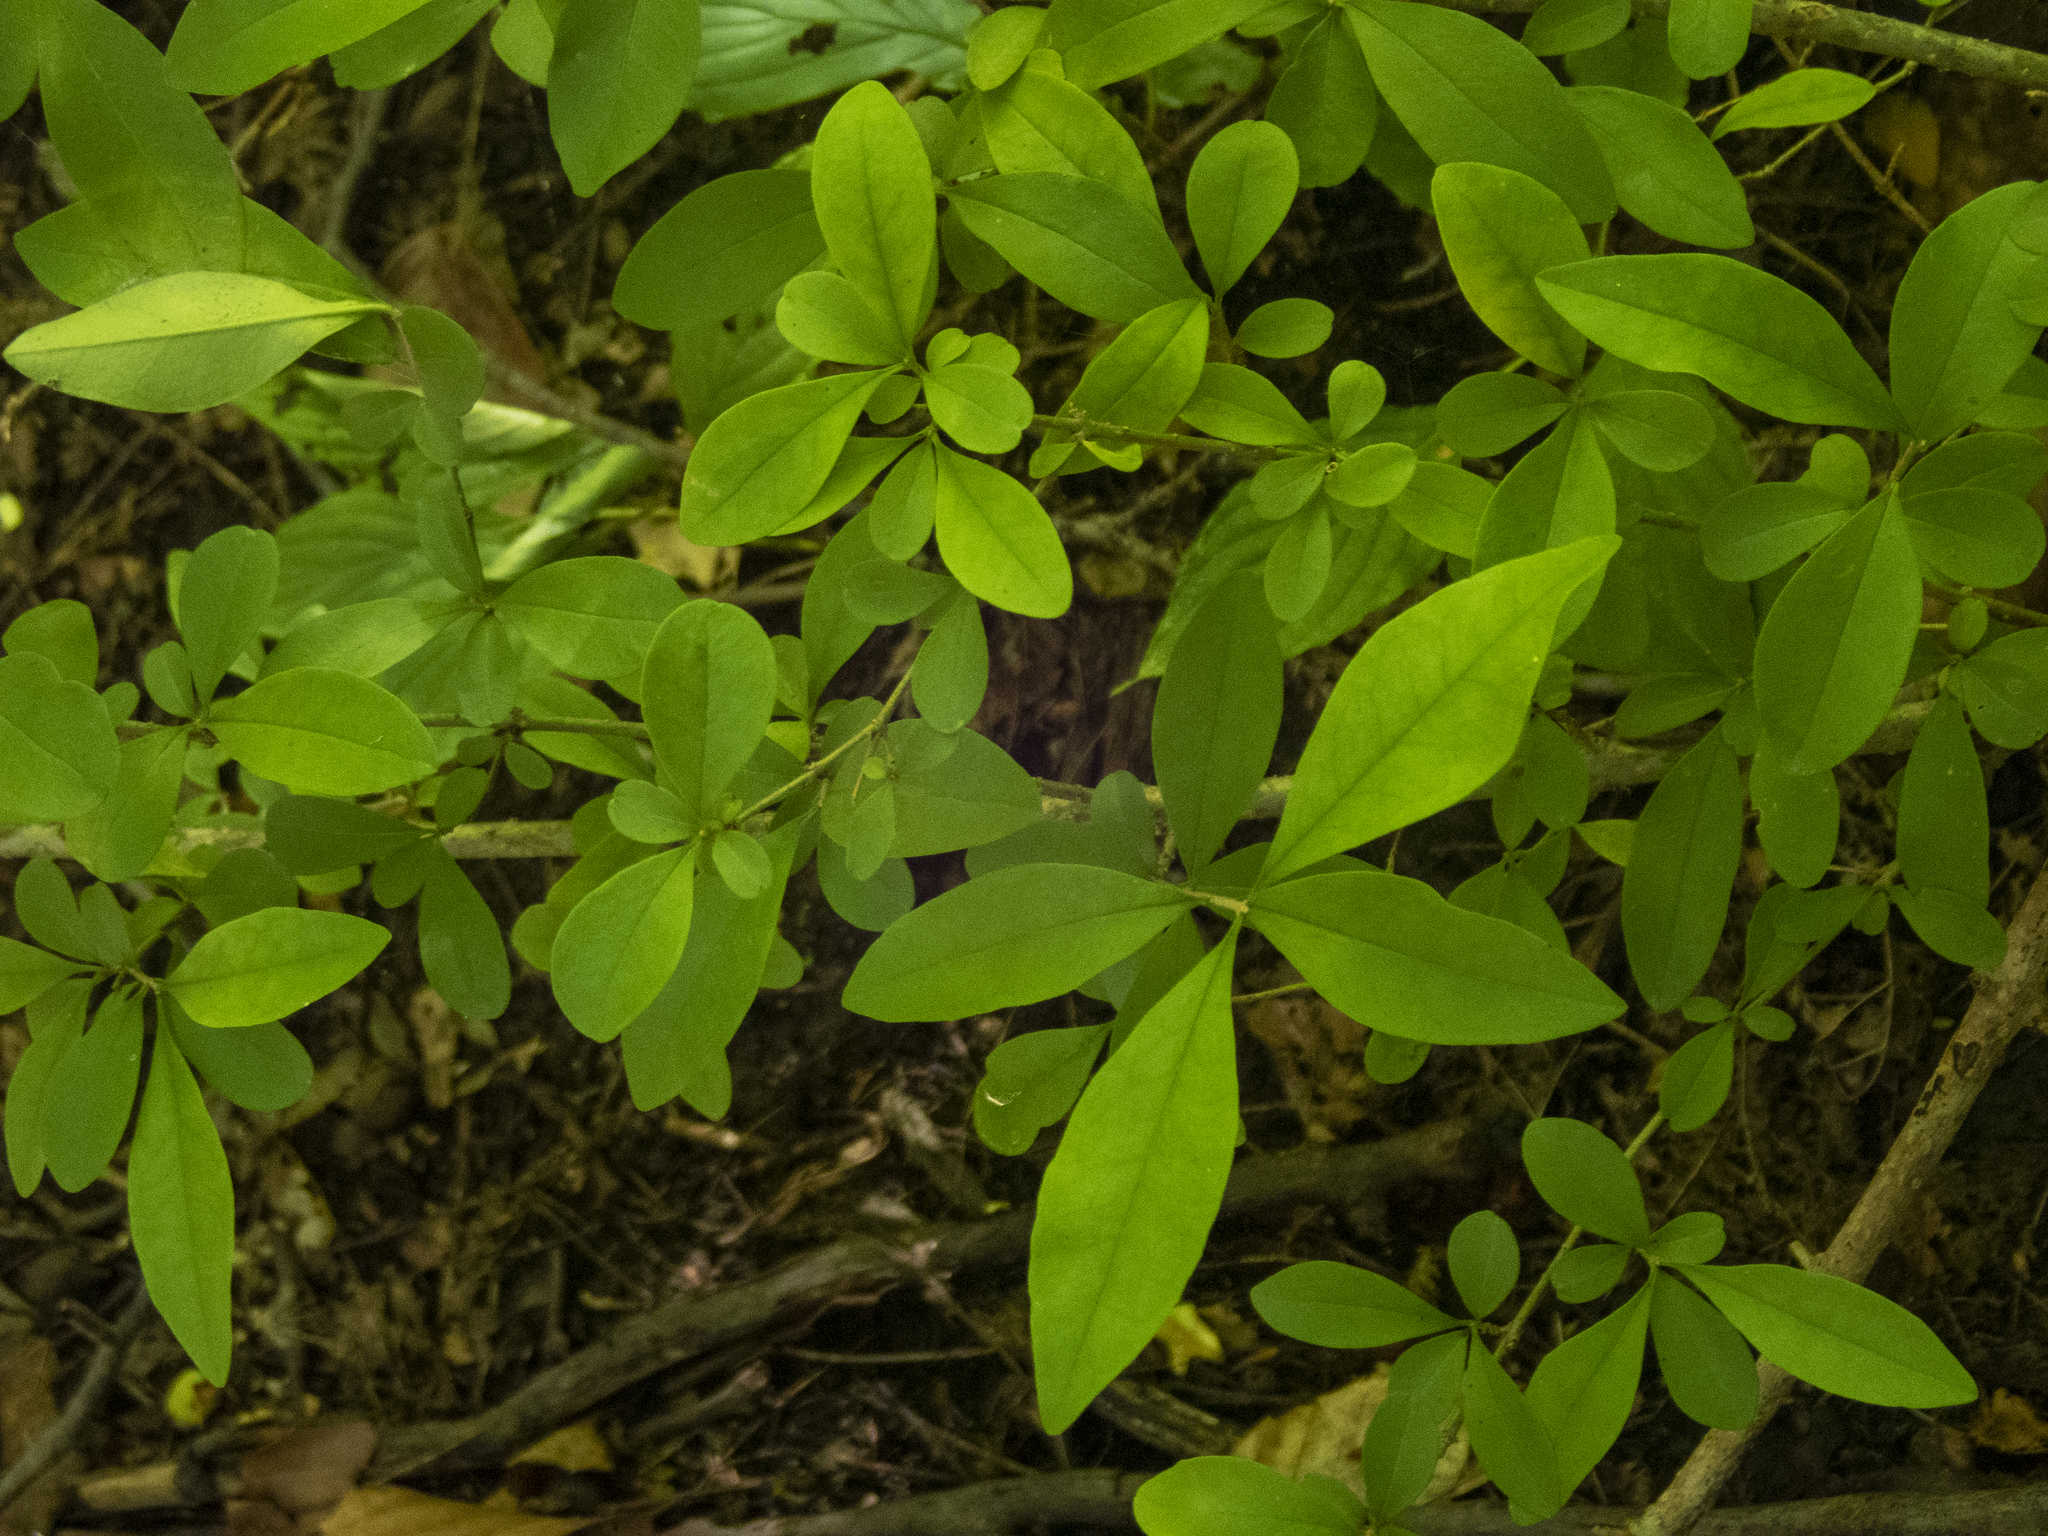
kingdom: Plantae
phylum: Tracheophyta
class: Magnoliopsida
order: Lamiales
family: Oleaceae
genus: Ligustrum
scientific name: Ligustrum obtusifolium
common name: Border privet
